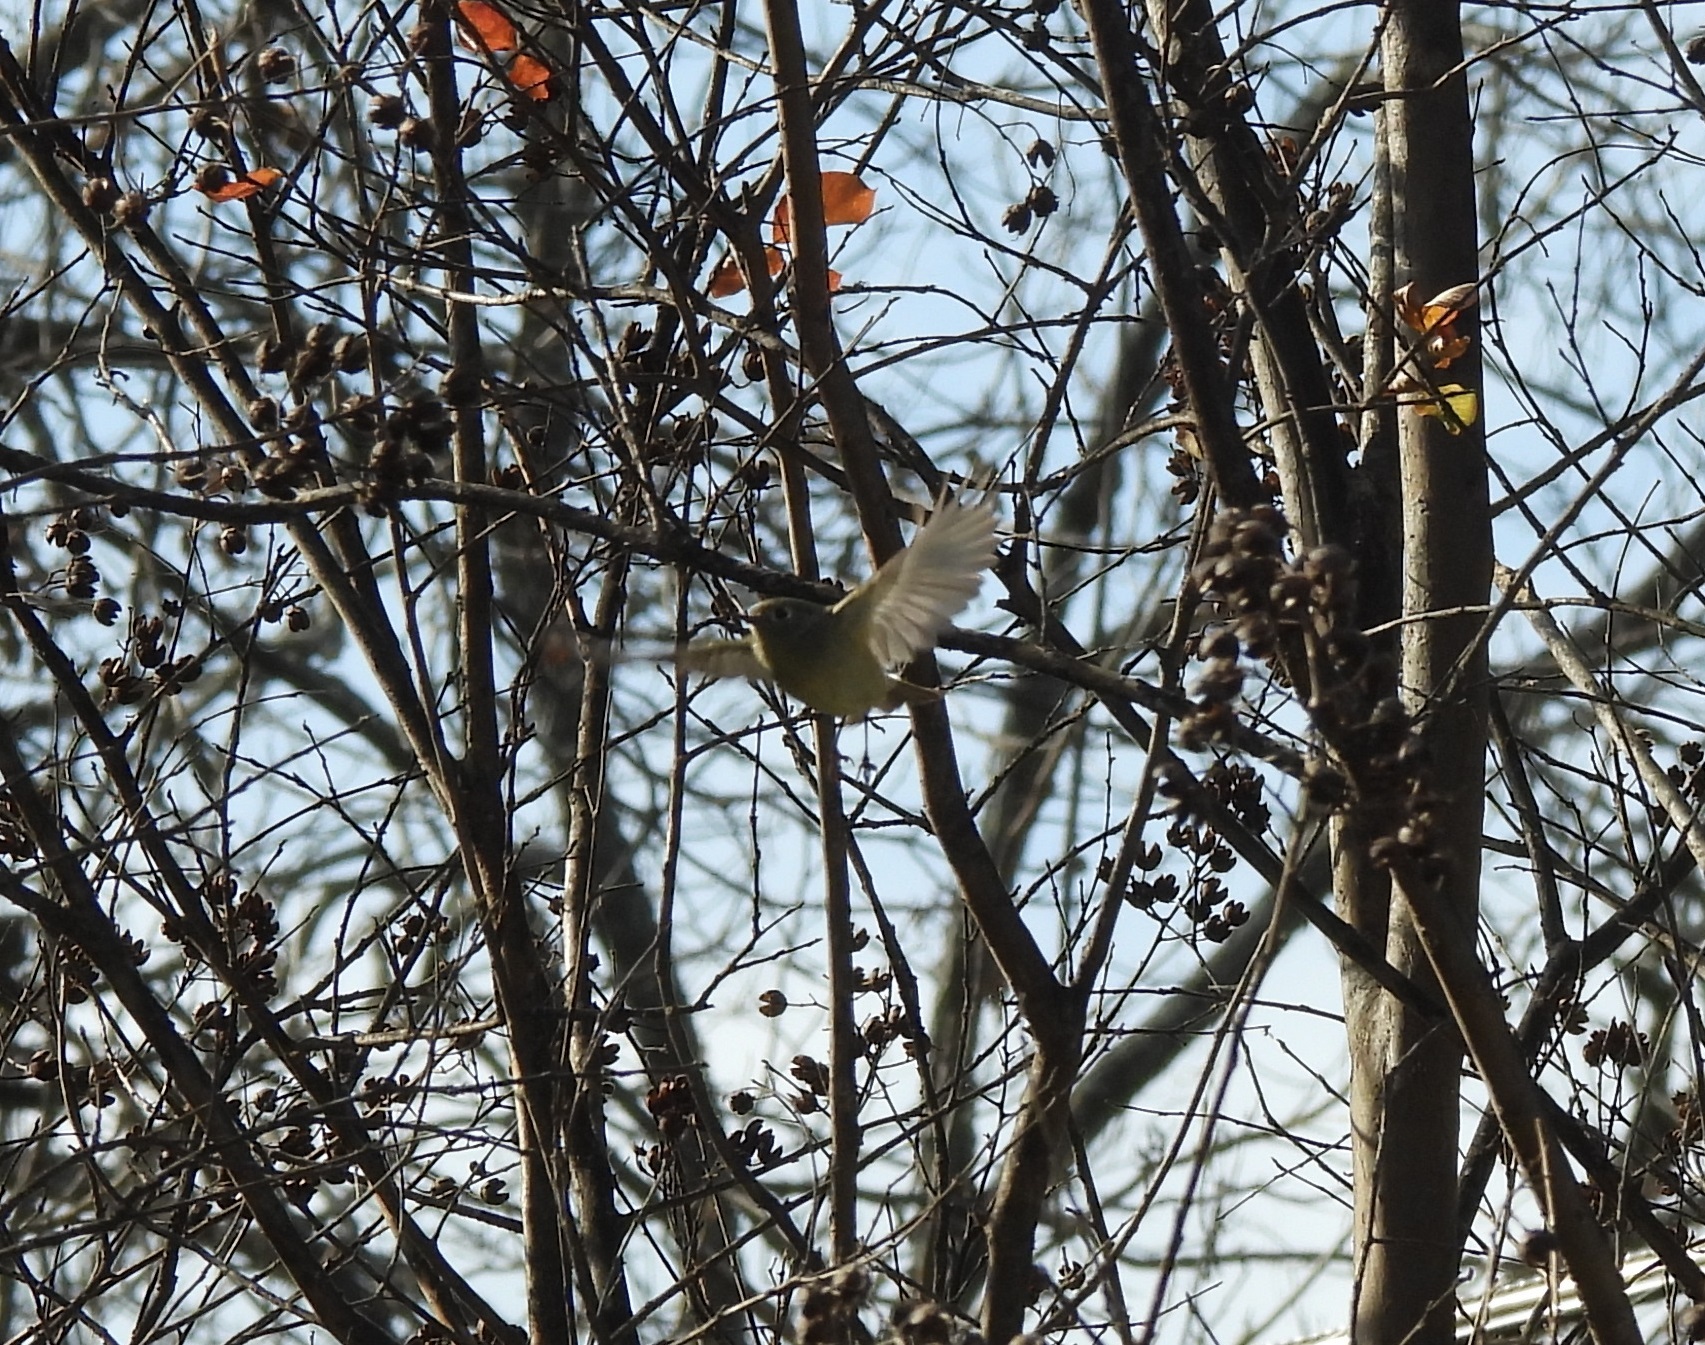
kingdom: Animalia
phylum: Chordata
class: Aves
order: Passeriformes
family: Regulidae
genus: Regulus
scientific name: Regulus calendula
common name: Ruby-crowned kinglet
